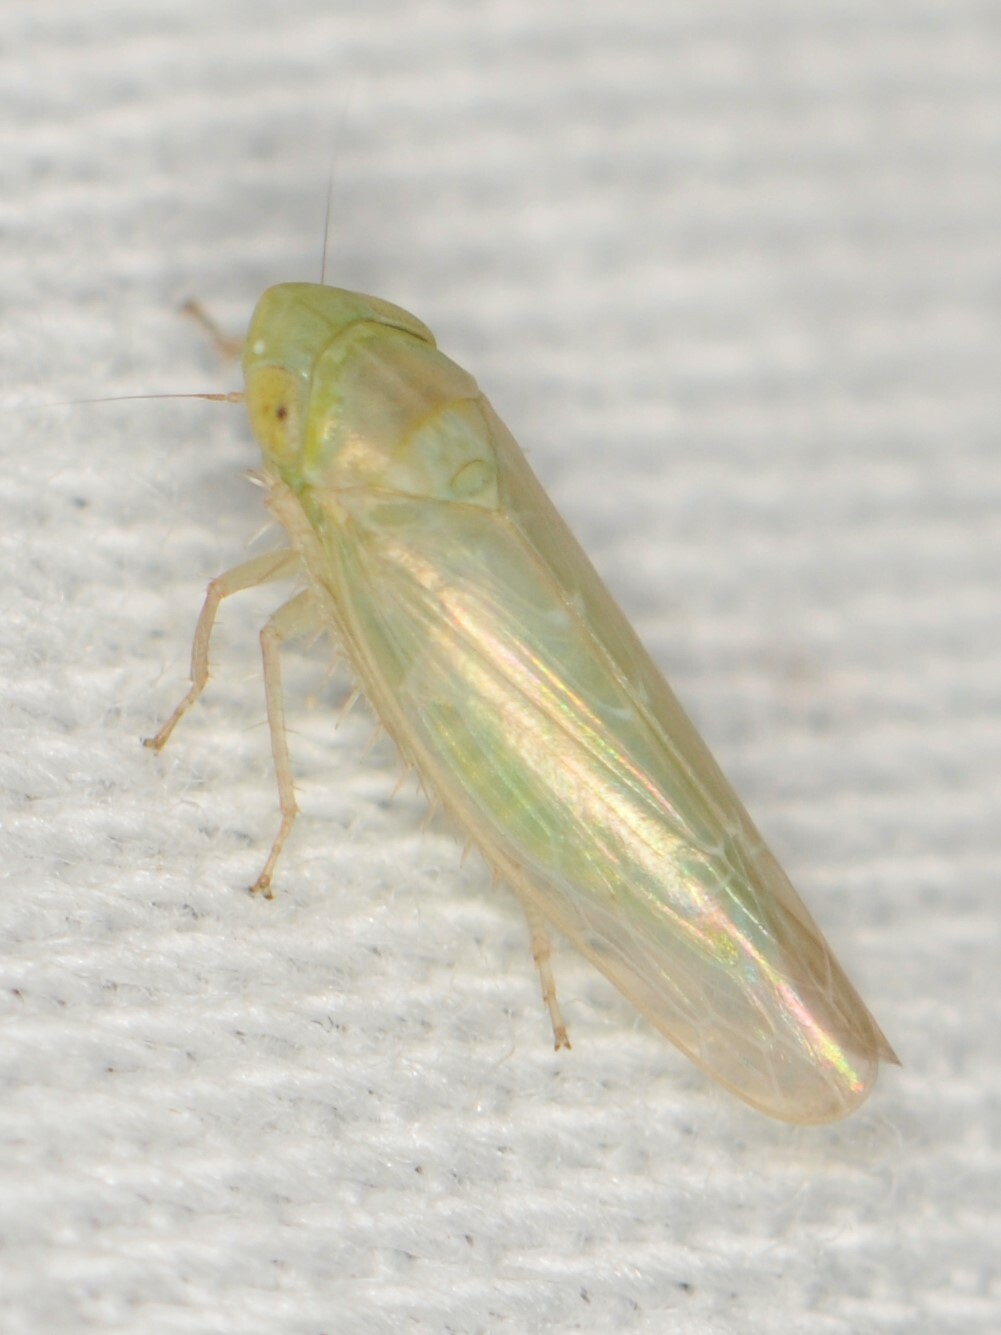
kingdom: Animalia
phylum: Arthropoda
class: Insecta
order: Hemiptera
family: Cicadellidae
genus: Chlorotettix
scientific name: Chlorotettix
